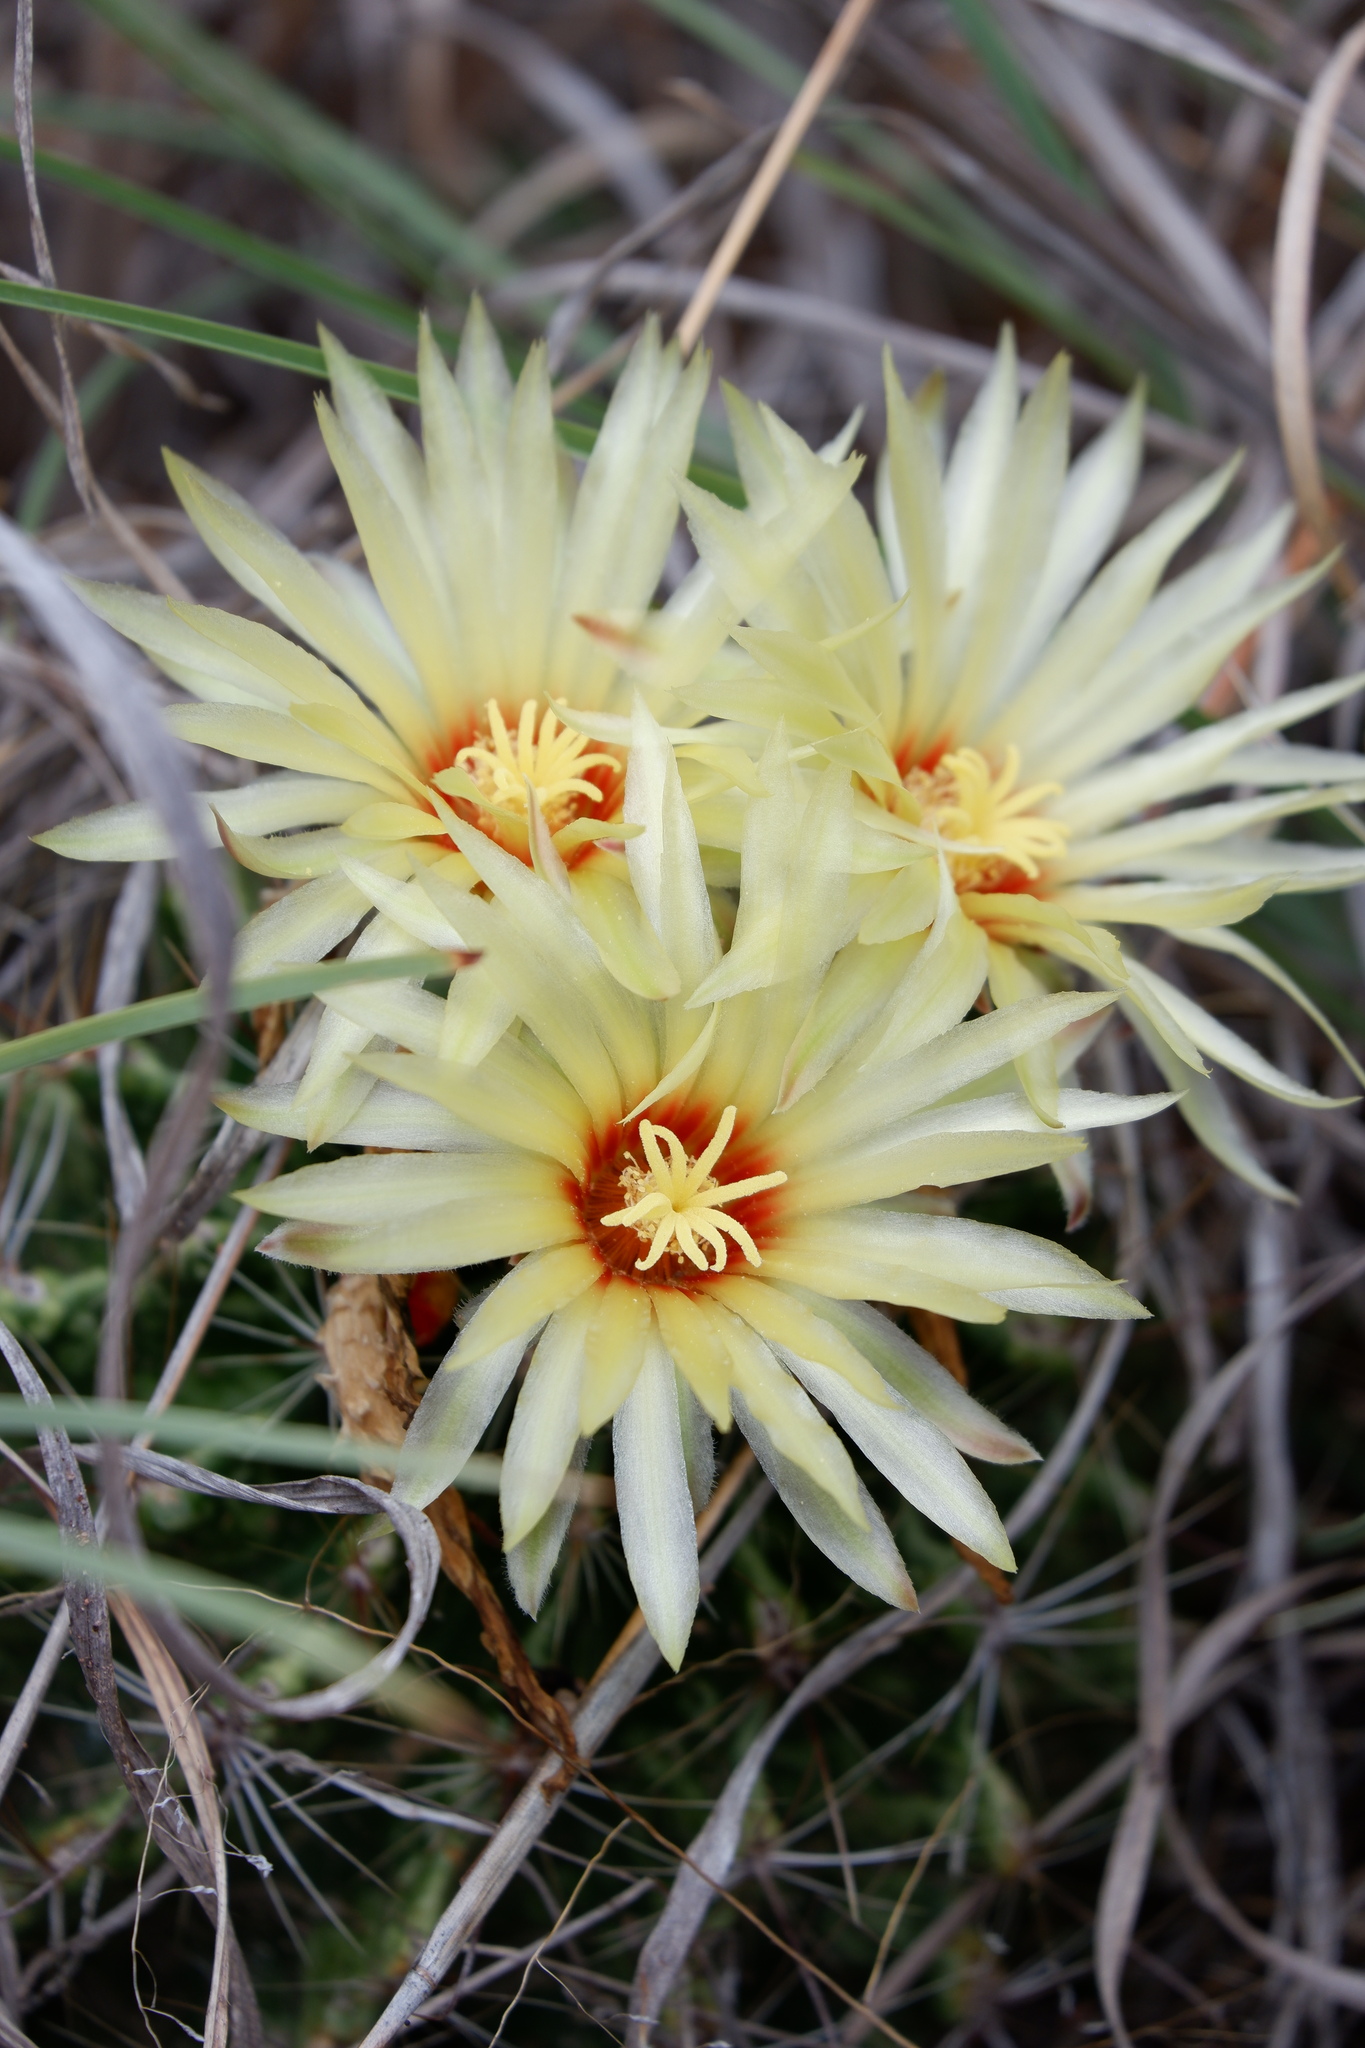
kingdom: Plantae
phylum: Tracheophyta
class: Magnoliopsida
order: Caryophyllales
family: Cactaceae
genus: Thelocactus
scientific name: Thelocactus setispinus
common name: Miniature barrel cactus
